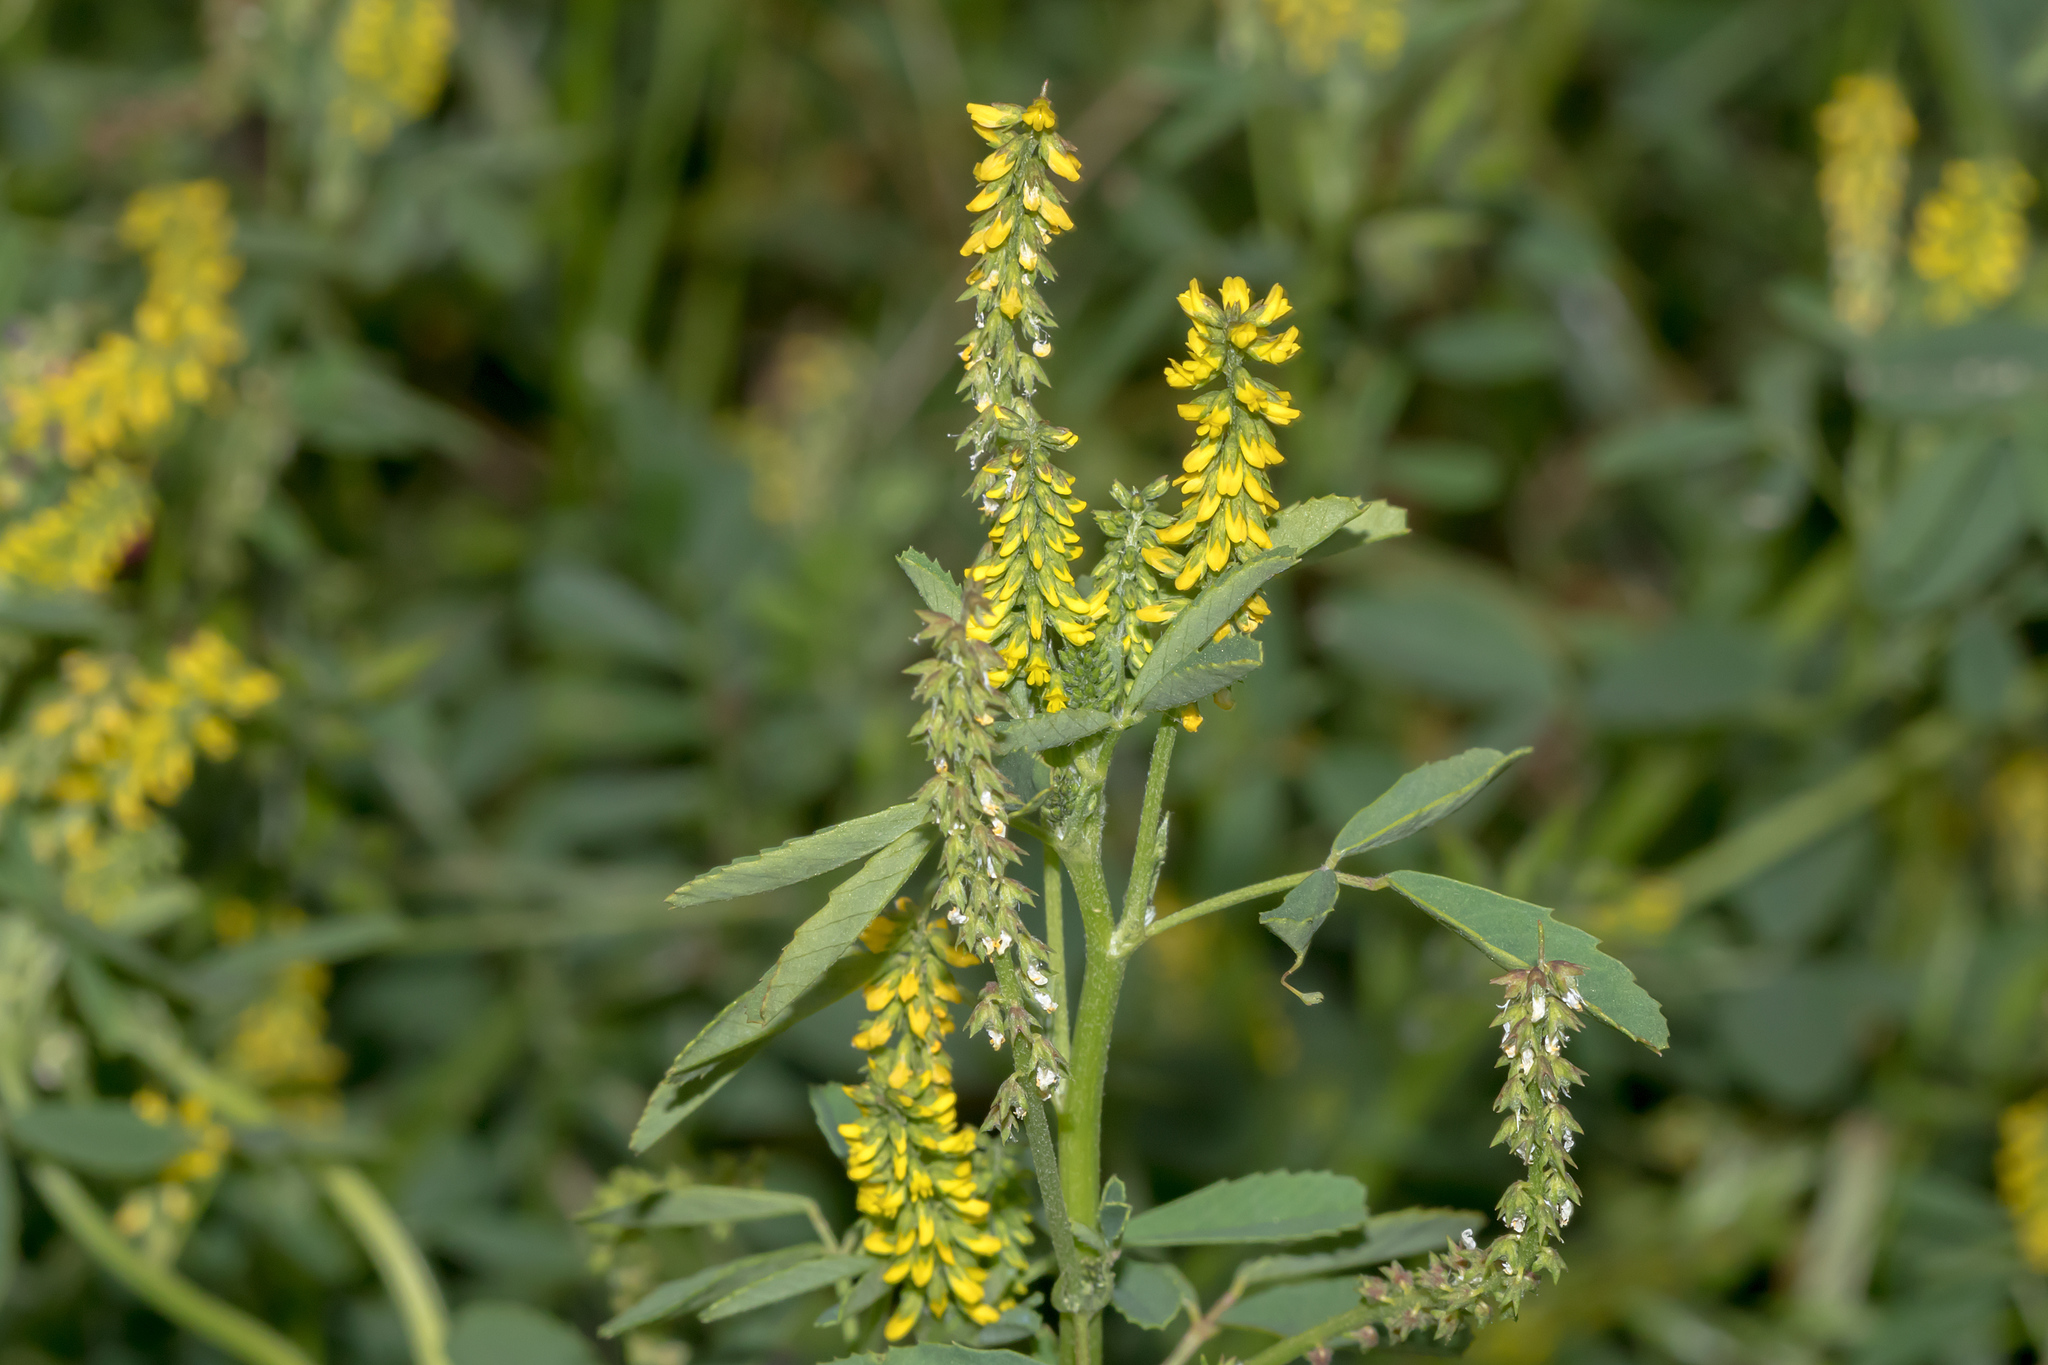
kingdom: Plantae
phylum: Tracheophyta
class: Magnoliopsida
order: Fabales
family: Fabaceae
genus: Melilotus
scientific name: Melilotus indicus
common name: Small melilot
